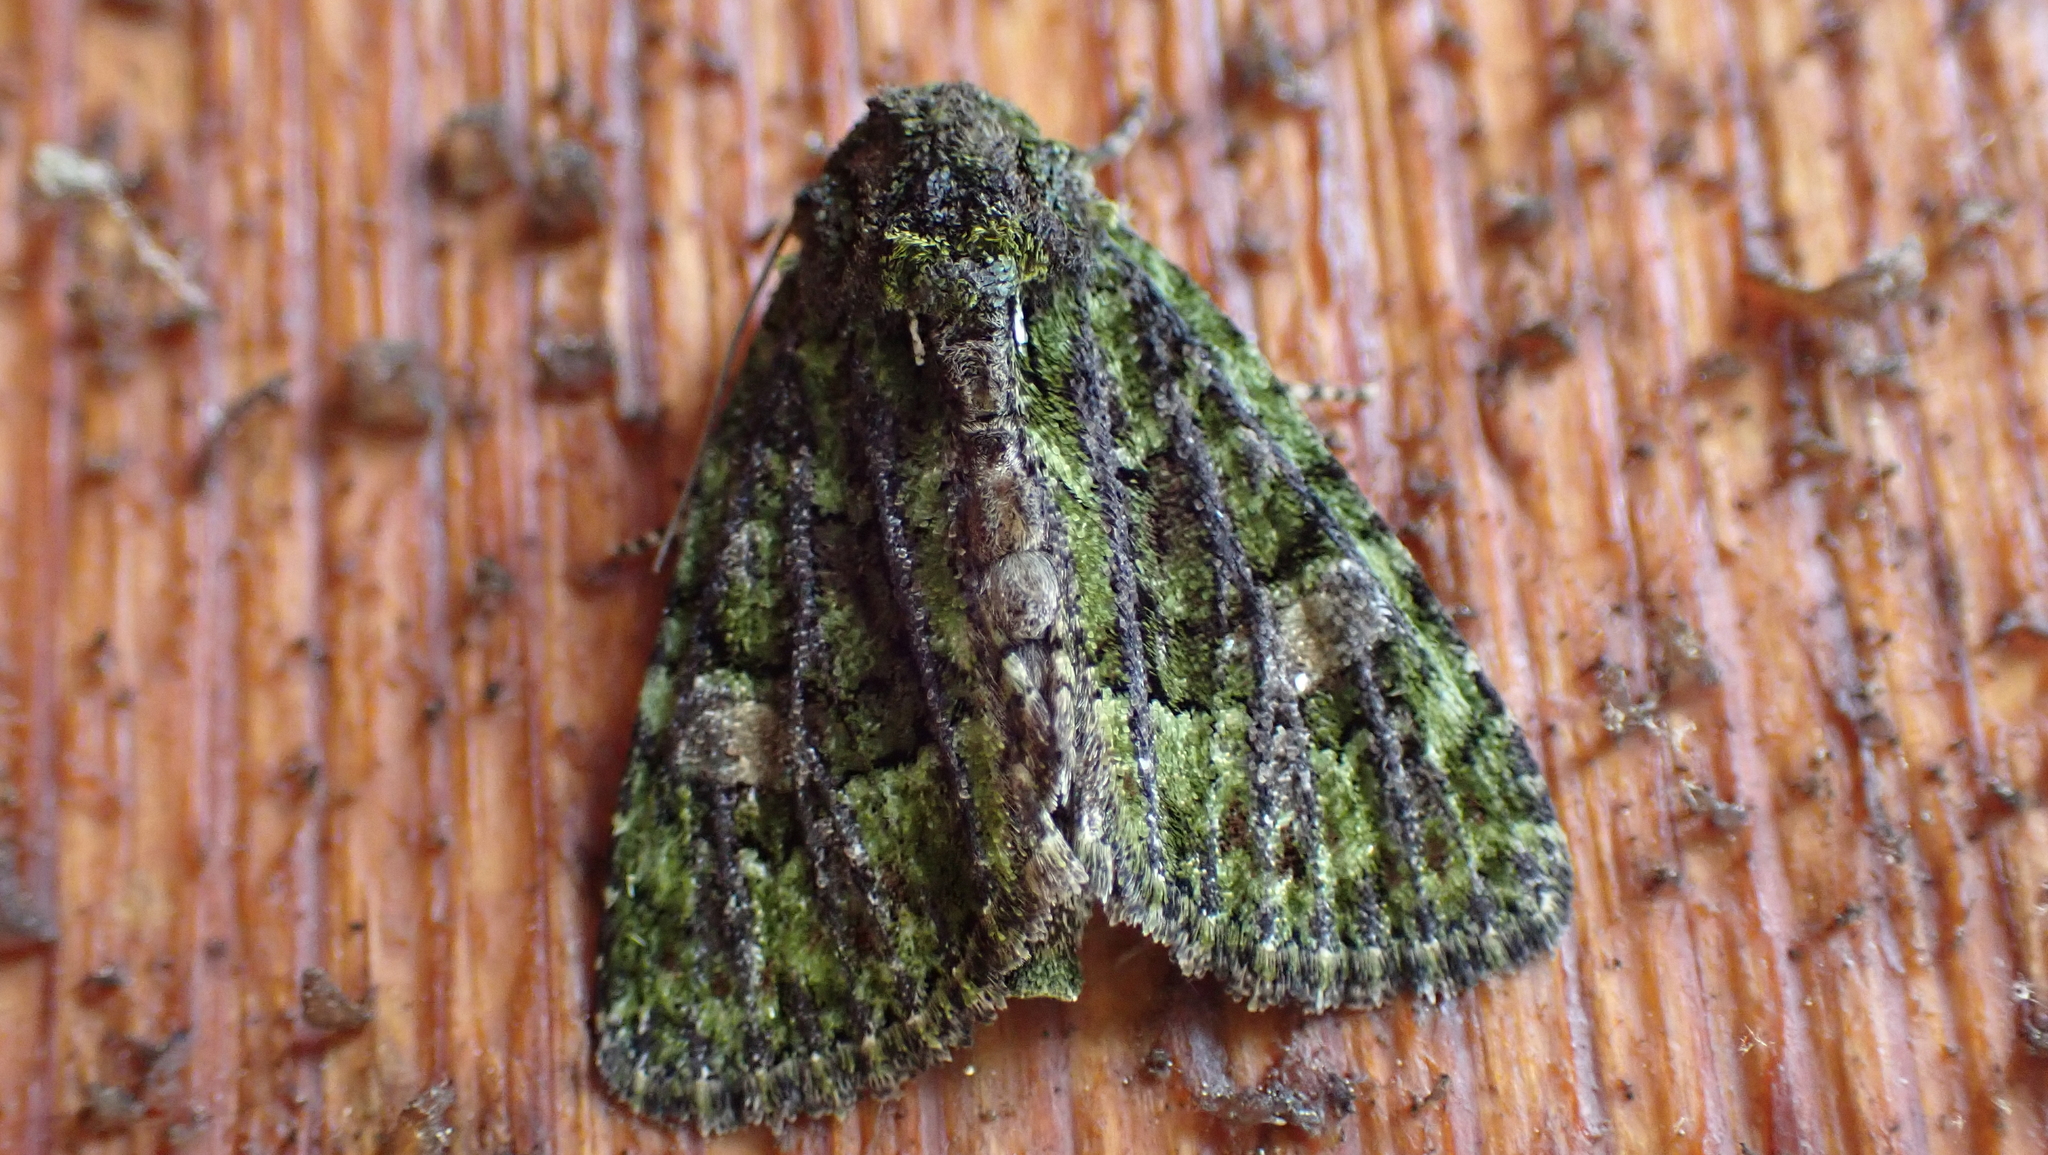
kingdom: Animalia
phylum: Arthropoda
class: Insecta
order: Lepidoptera
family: Noctuidae
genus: Phosphila
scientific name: Phosphila miselioides
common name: Spotted phosphila moth
